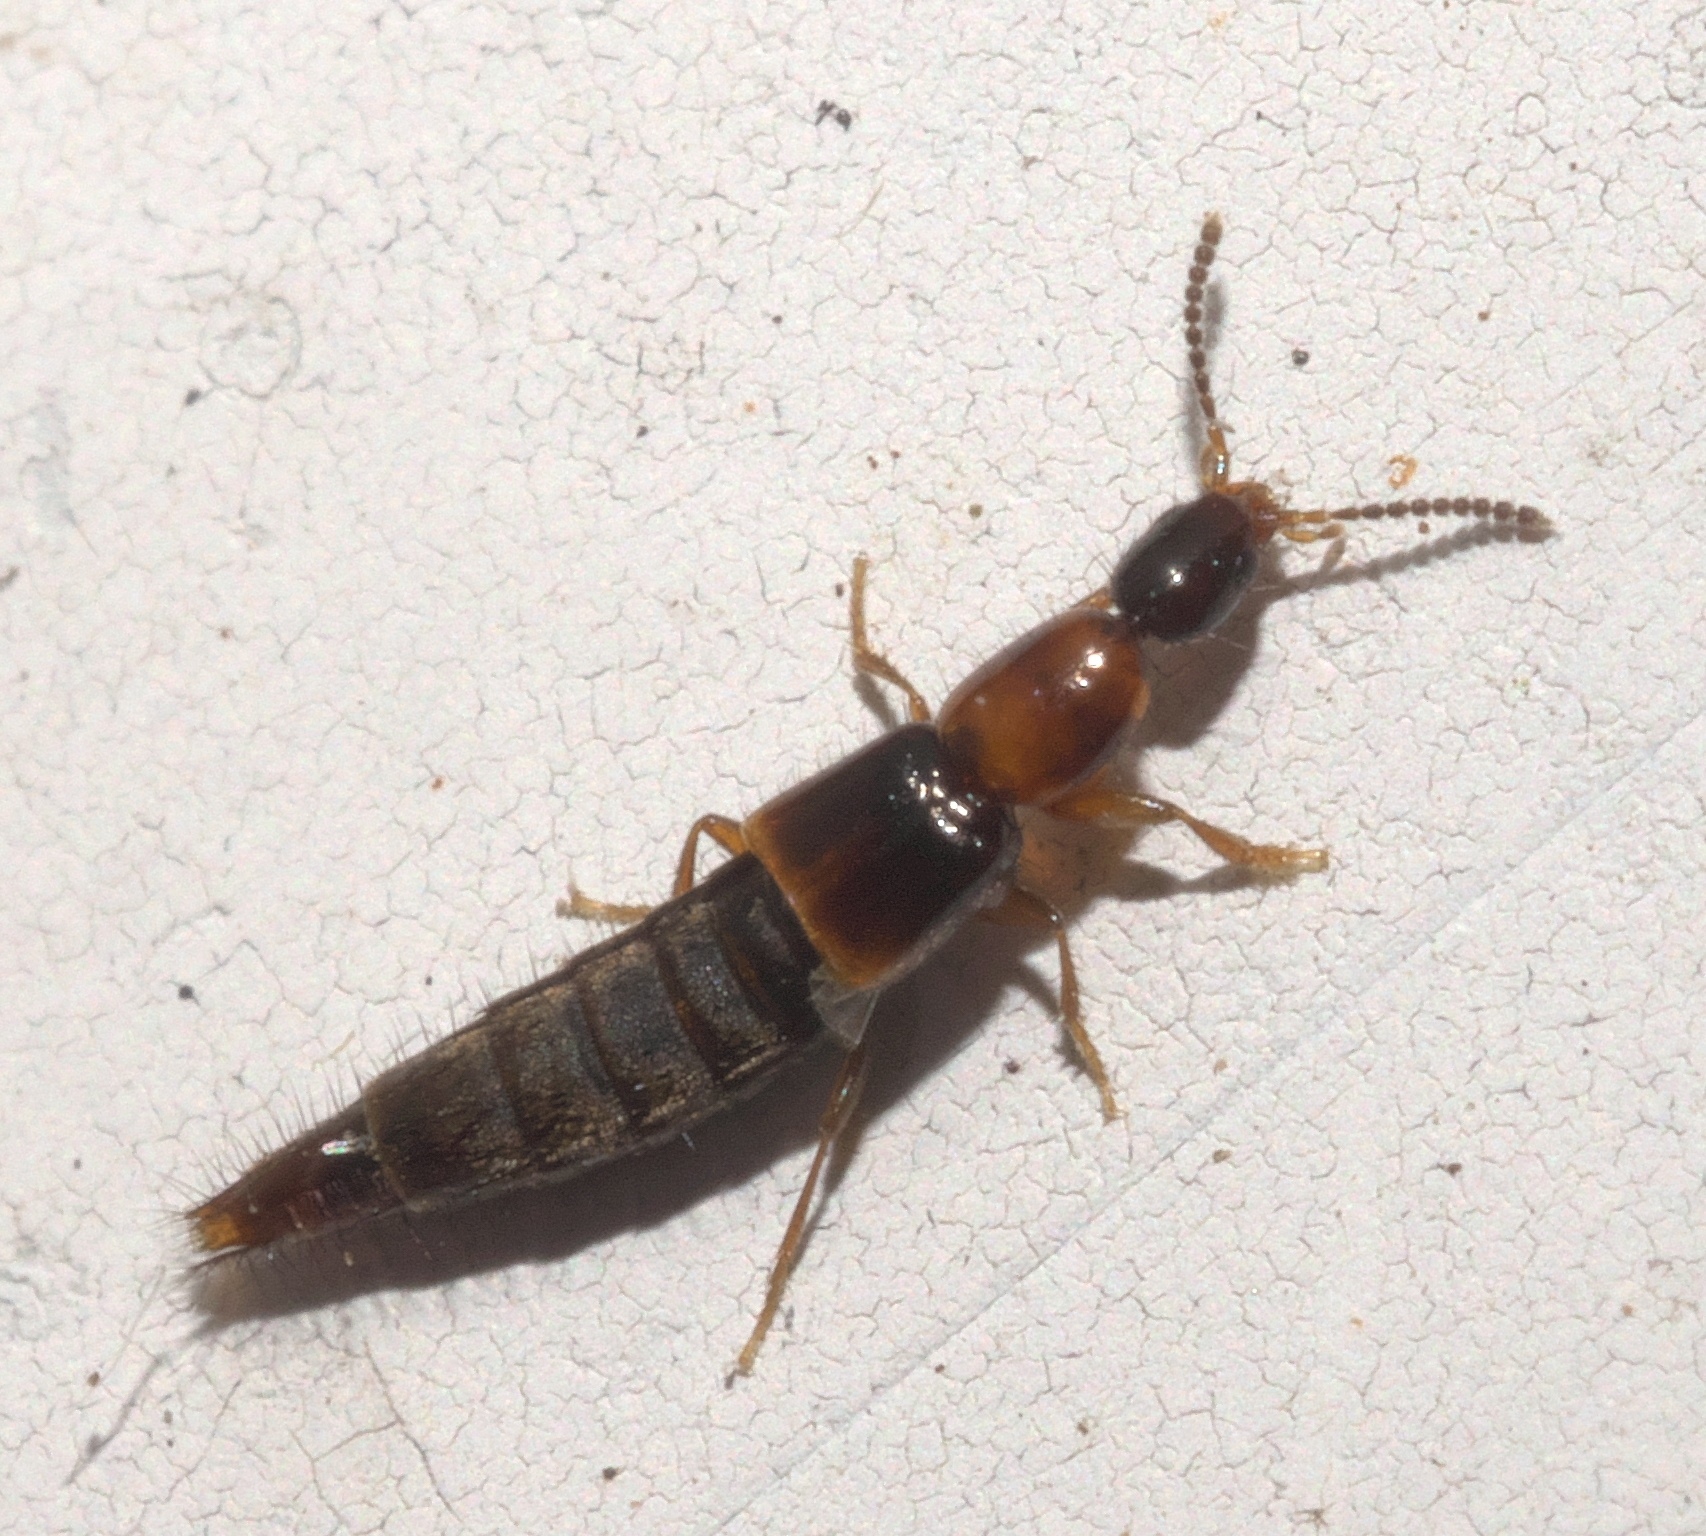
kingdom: Animalia
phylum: Arthropoda
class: Insecta
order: Coleoptera
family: Staphylinidae
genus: Diochus
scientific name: Diochus schaumii
